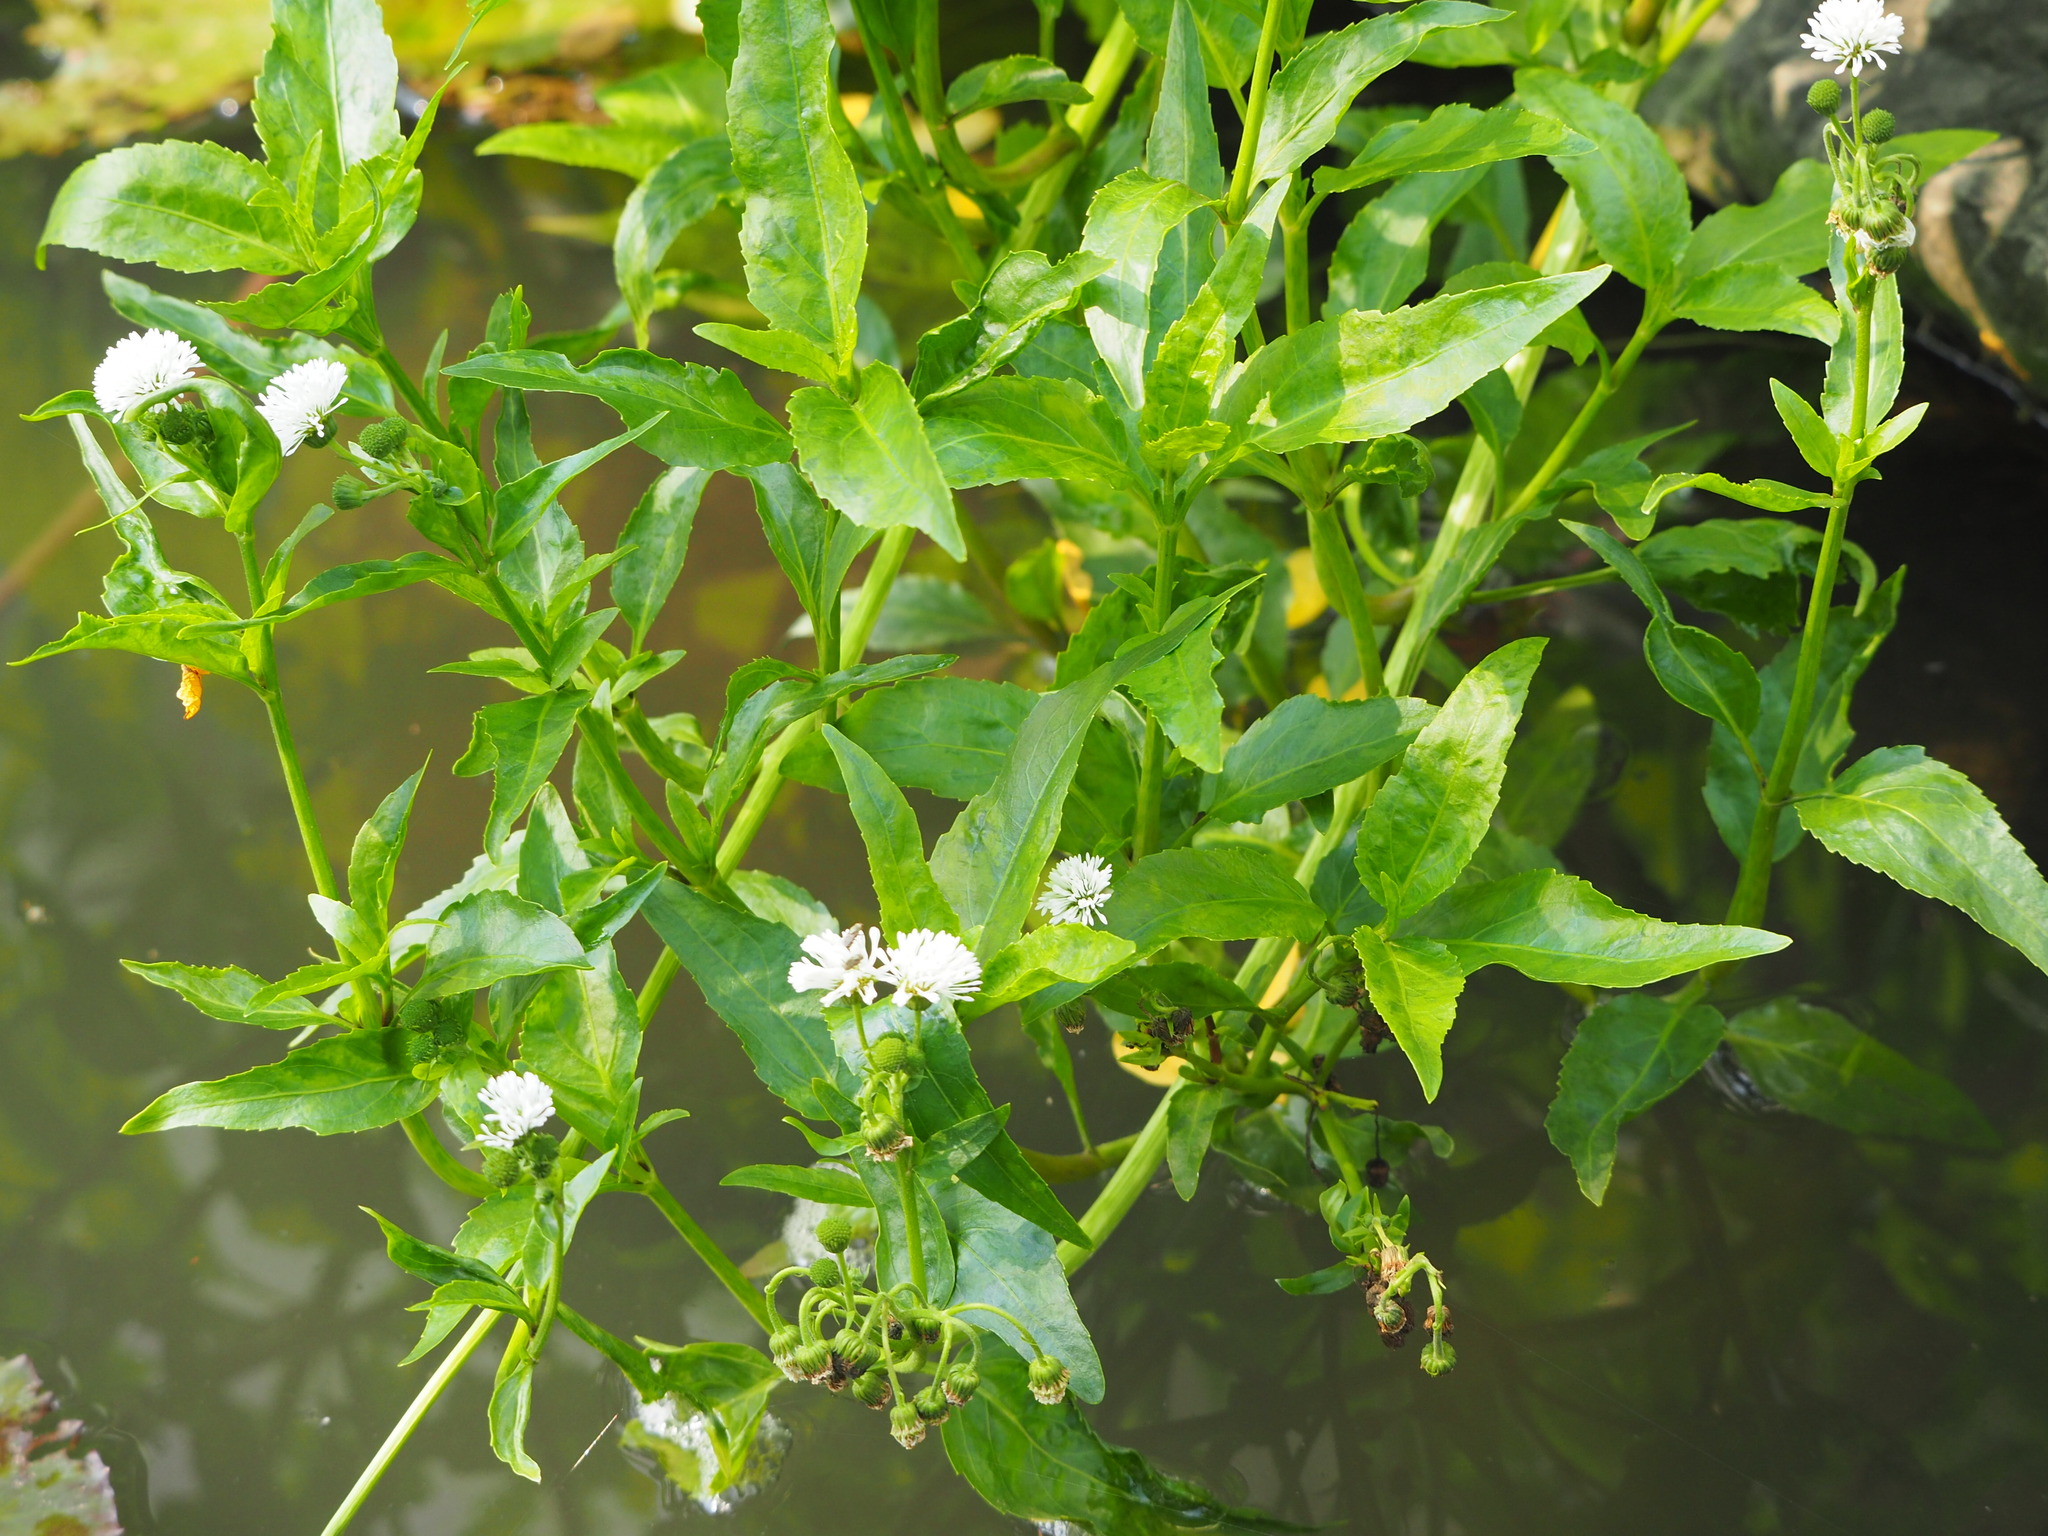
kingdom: Plantae
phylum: Tracheophyta
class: Magnoliopsida
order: Asterales
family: Asteraceae
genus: Gymnocoronis
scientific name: Gymnocoronis spilanthoides
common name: Senegal teaplant
